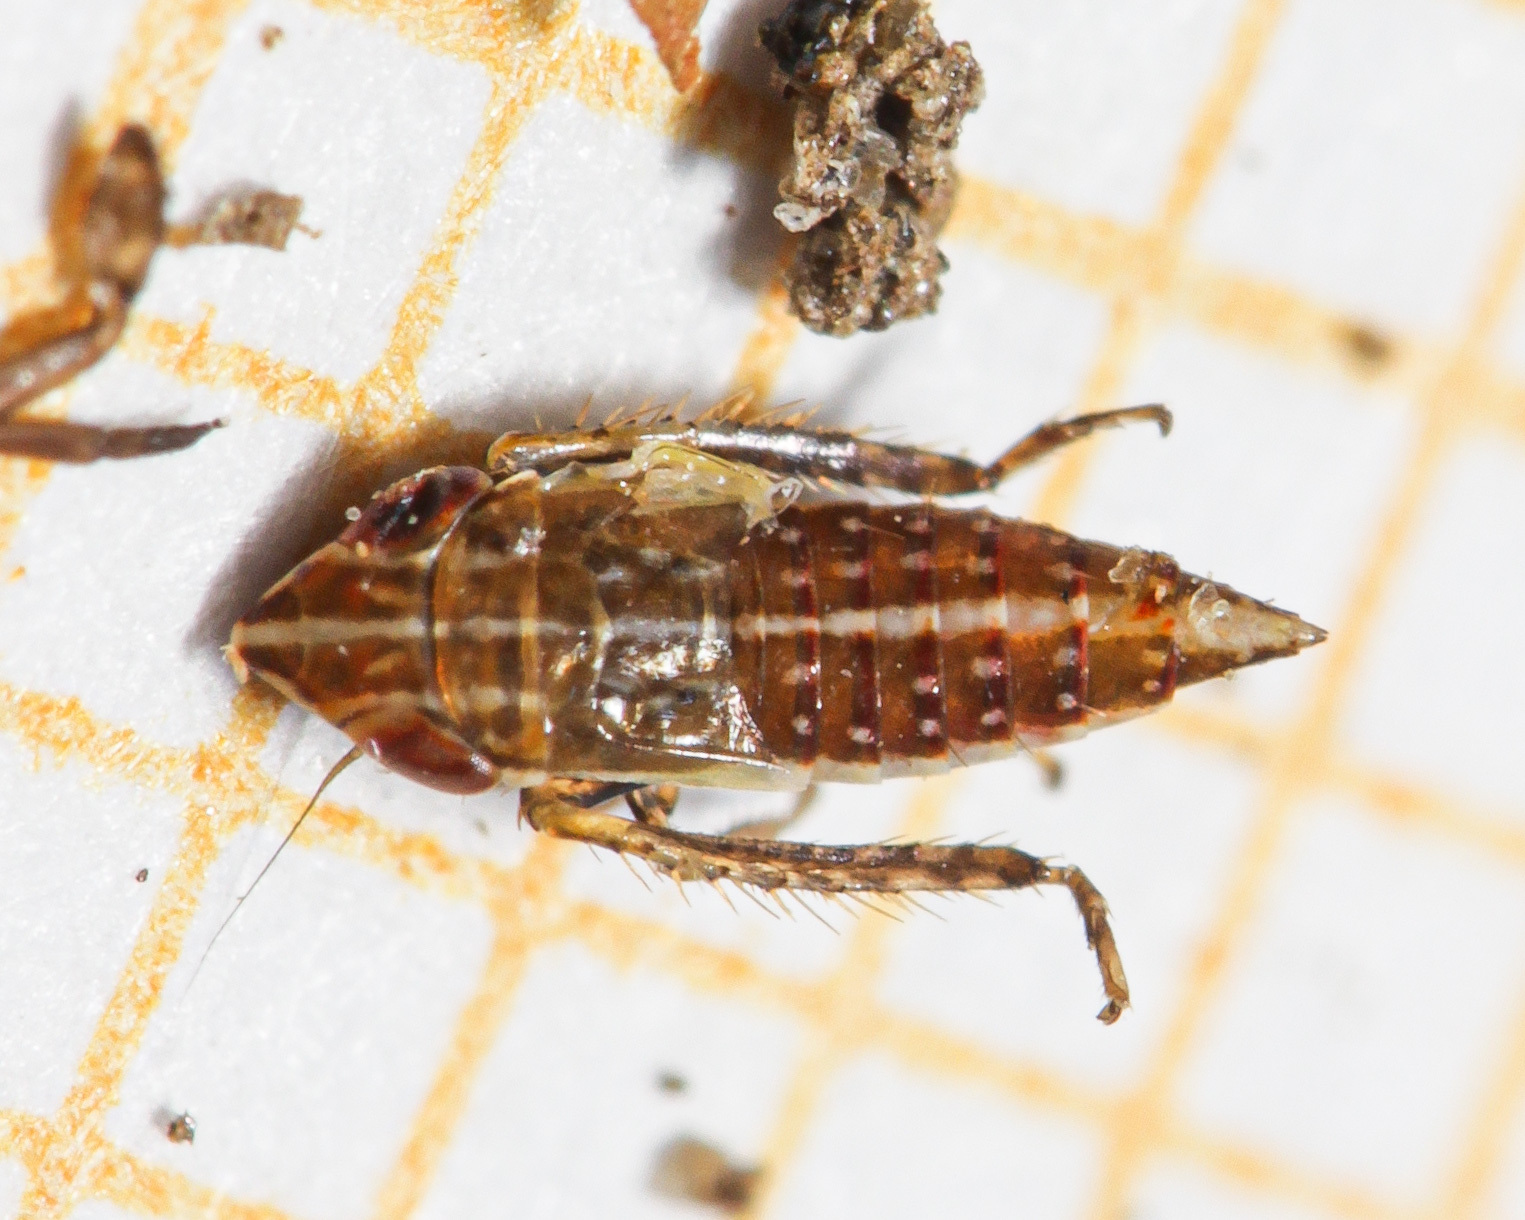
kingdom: Animalia
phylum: Arthropoda
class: Insecta
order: Hemiptera
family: Cicadellidae
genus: Errastunus
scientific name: Errastunus ocellaris
